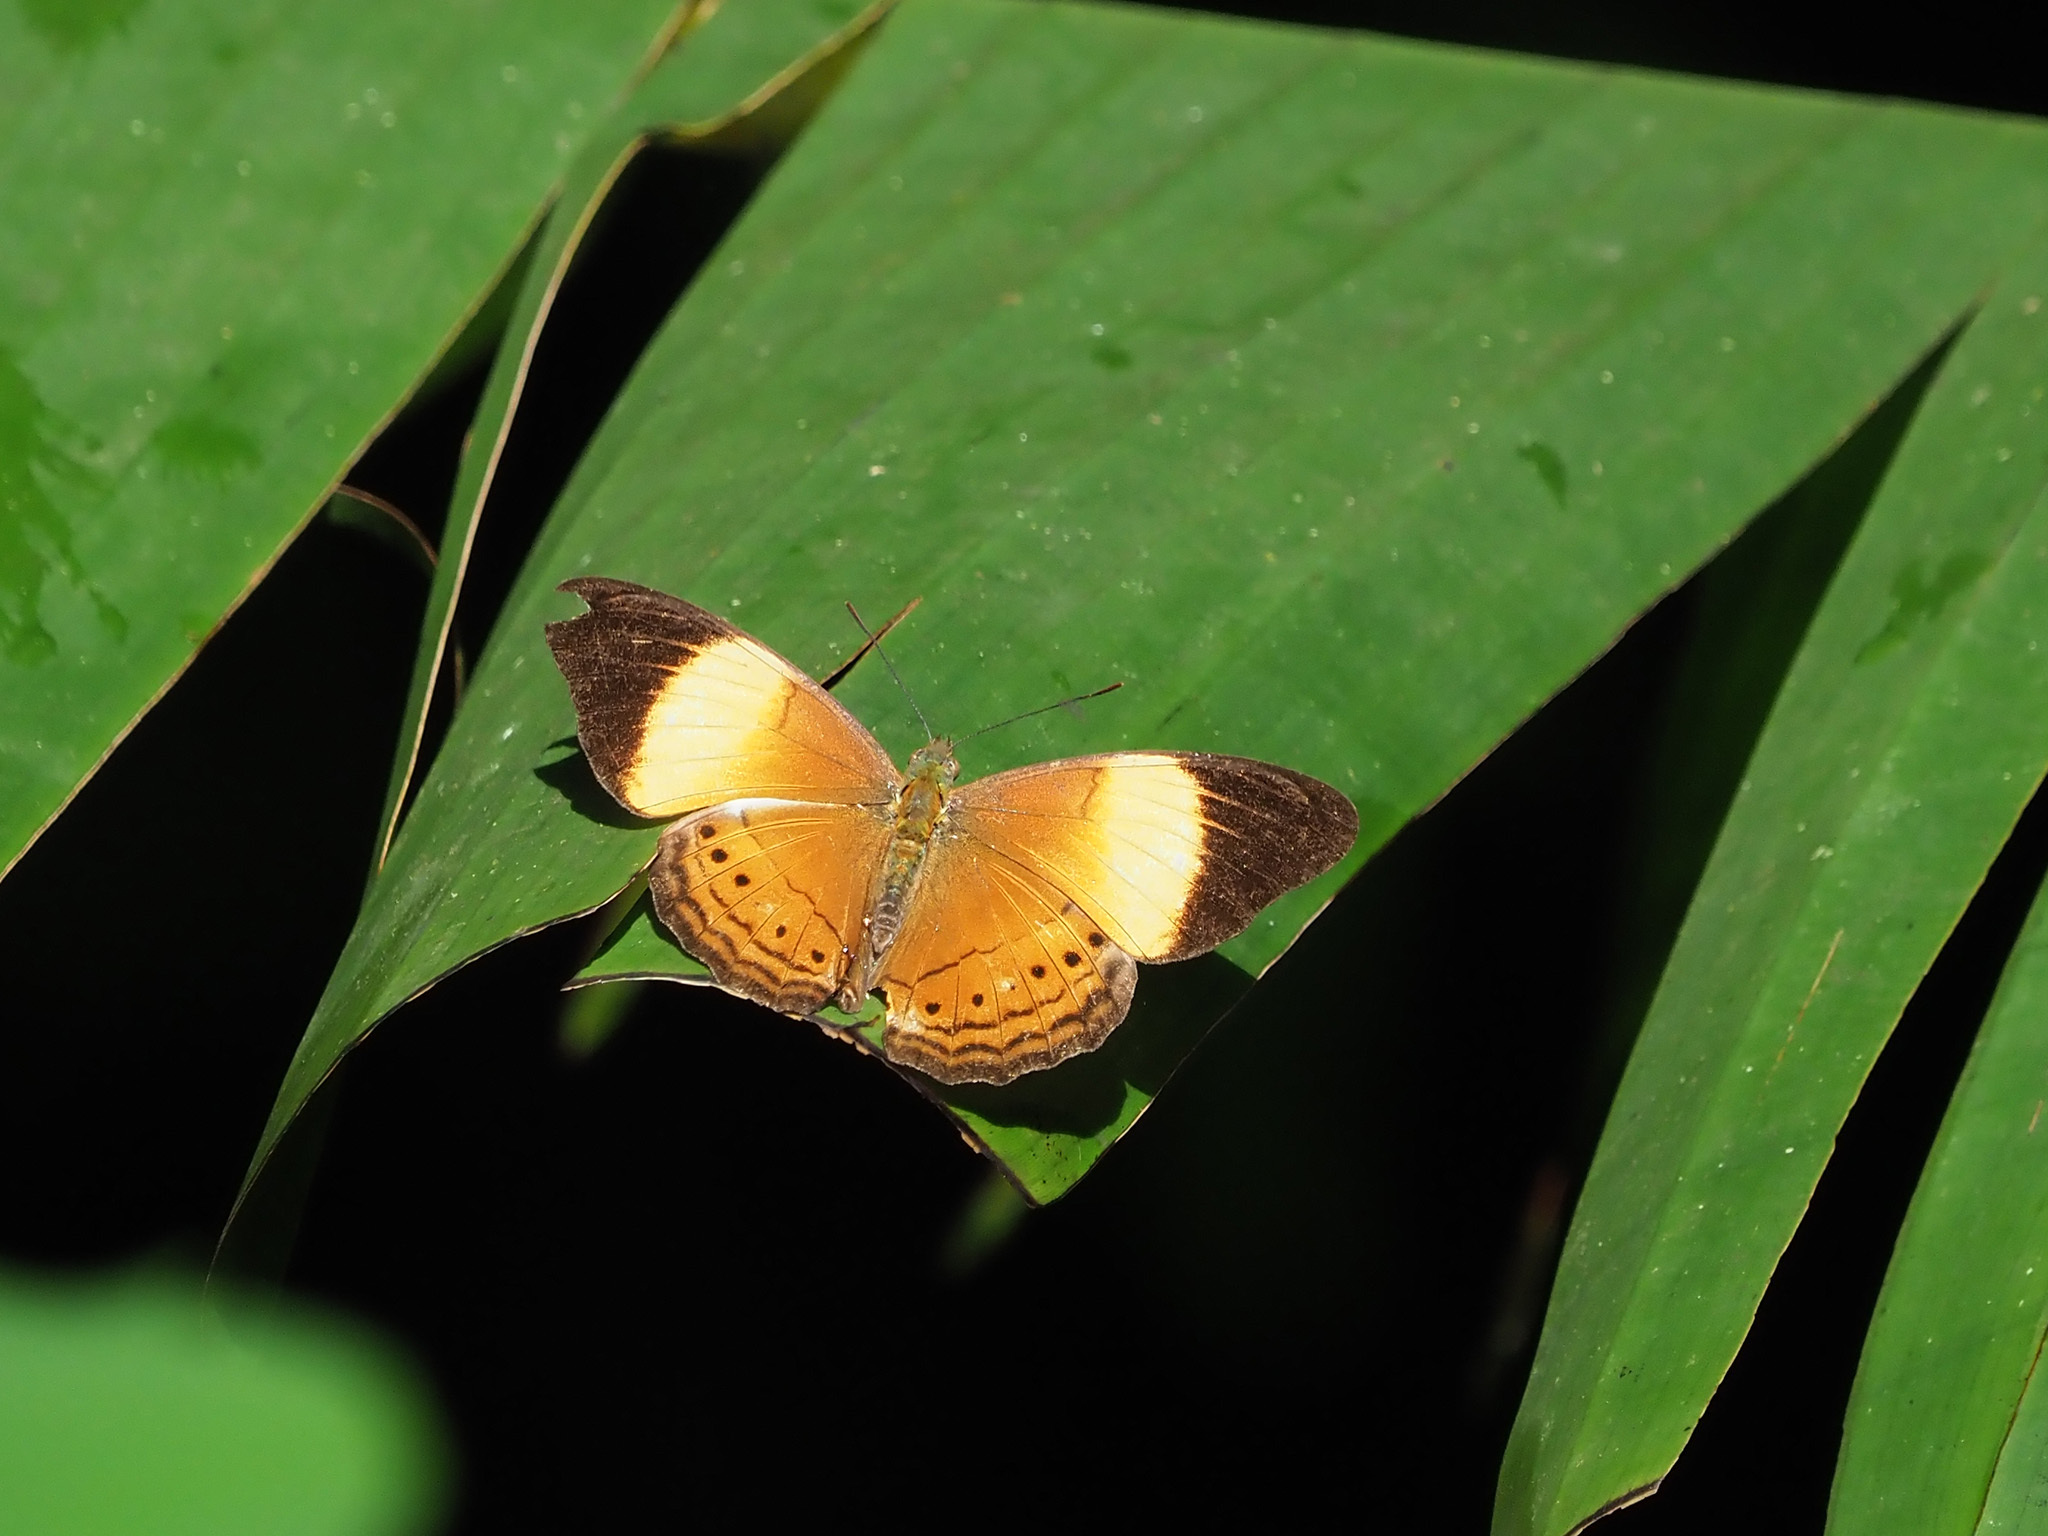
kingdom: Animalia
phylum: Arthropoda
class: Insecta
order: Lepidoptera
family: Nymphalidae
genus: Cirrochroa
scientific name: Cirrochroa orissa
